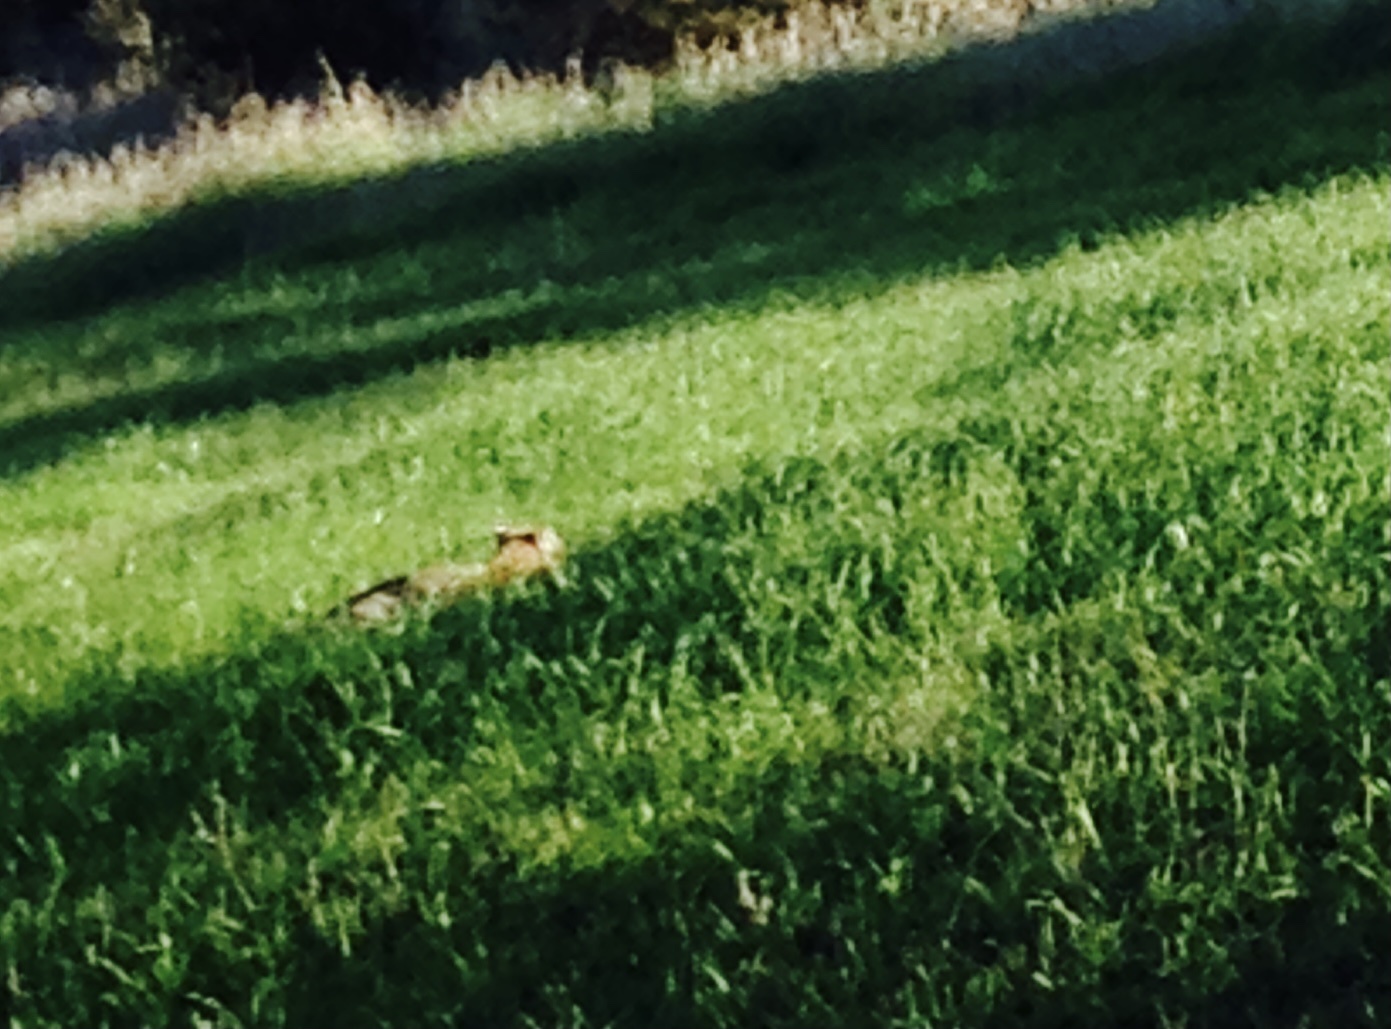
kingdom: Animalia
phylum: Chordata
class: Mammalia
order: Carnivora
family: Felidae
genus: Lynx
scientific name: Lynx rufus
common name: Bobcat
